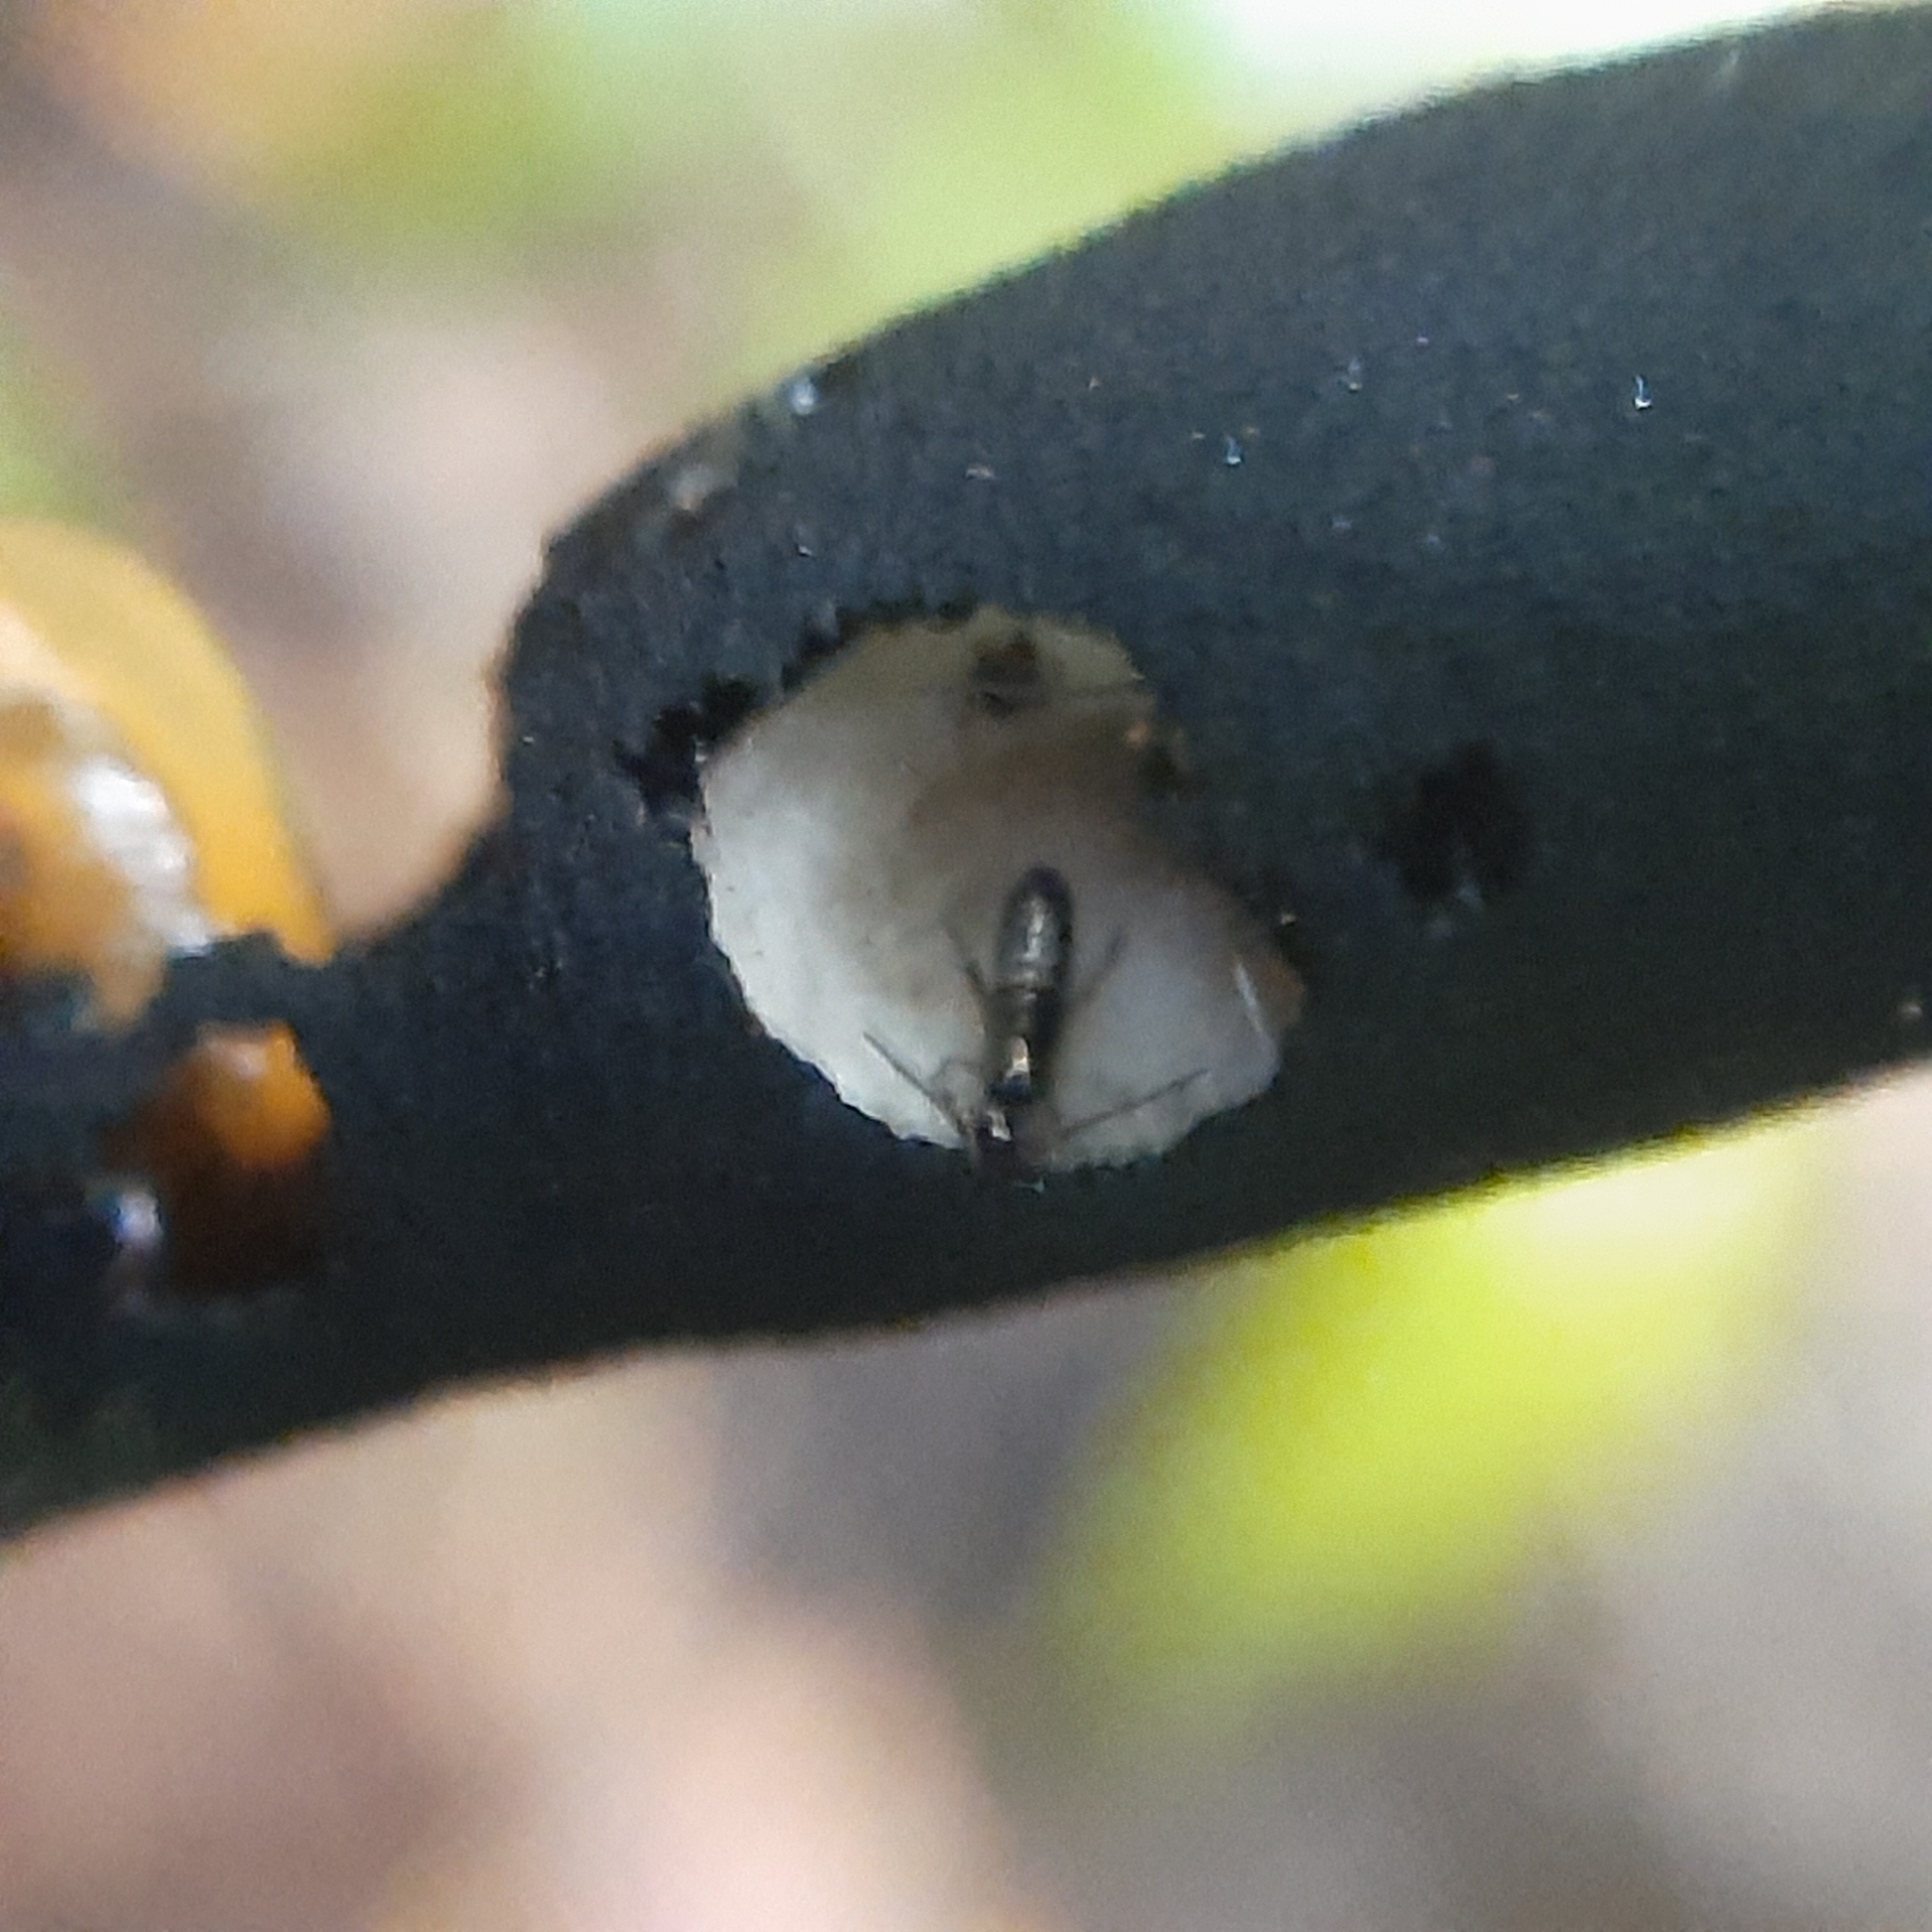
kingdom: Animalia
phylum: Arthropoda
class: Collembola
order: Entomobryomorpha
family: Tomoceridae
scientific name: Tomoceridae
